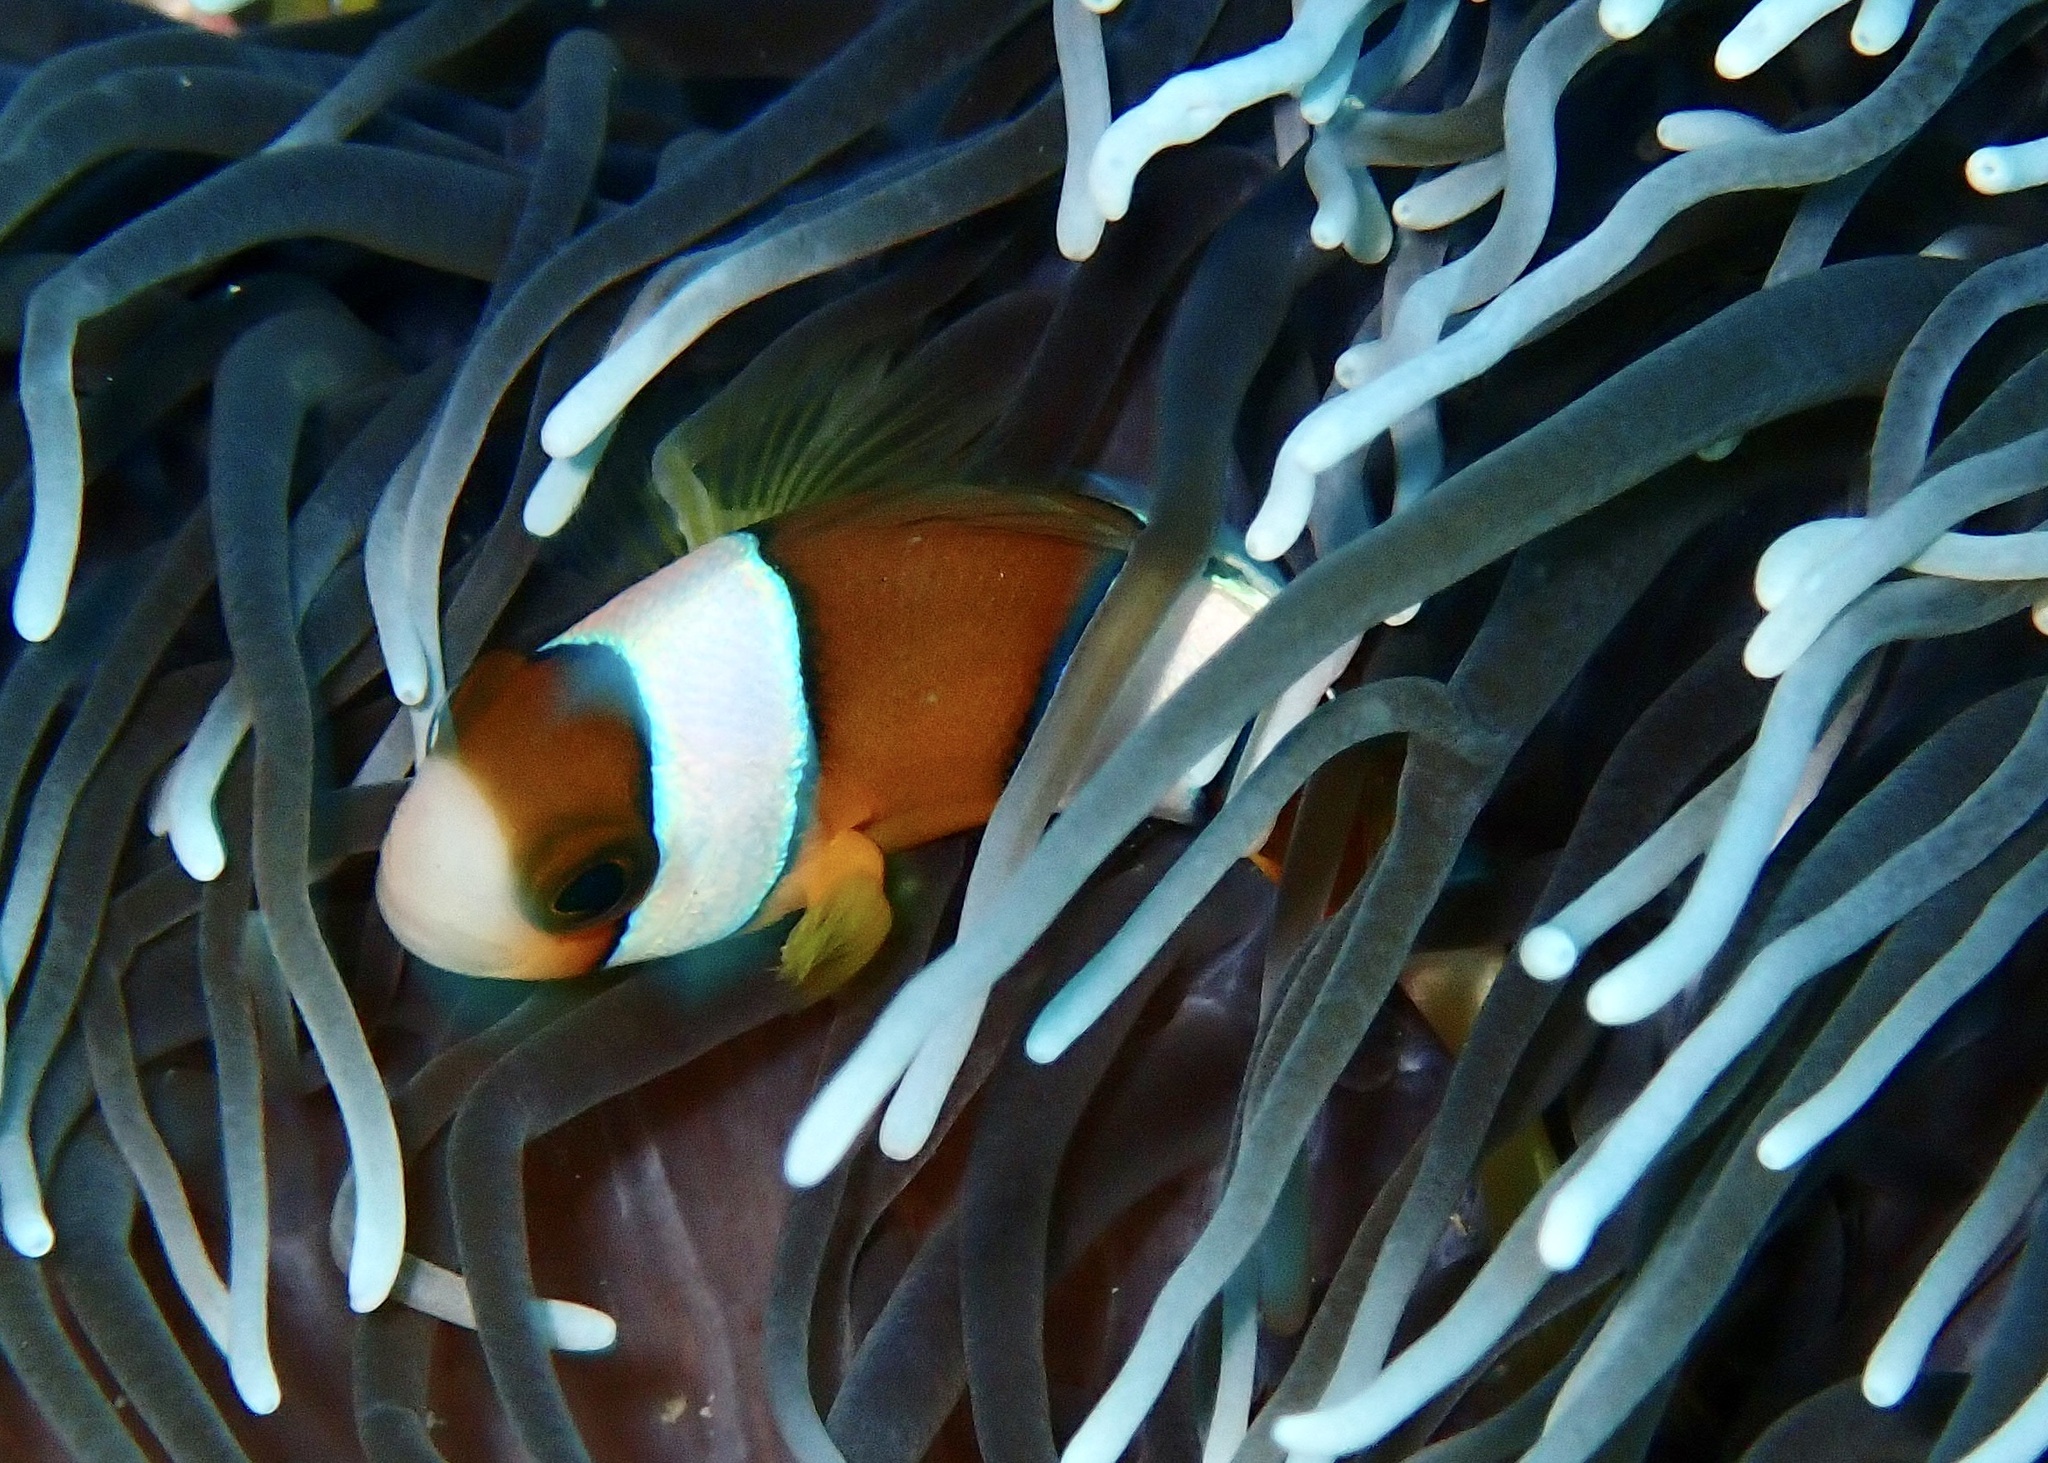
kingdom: Animalia
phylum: Chordata
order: Perciformes
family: Pomacentridae
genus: Amphiprion
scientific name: Amphiprion clarkii
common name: Clark's anemonefish
